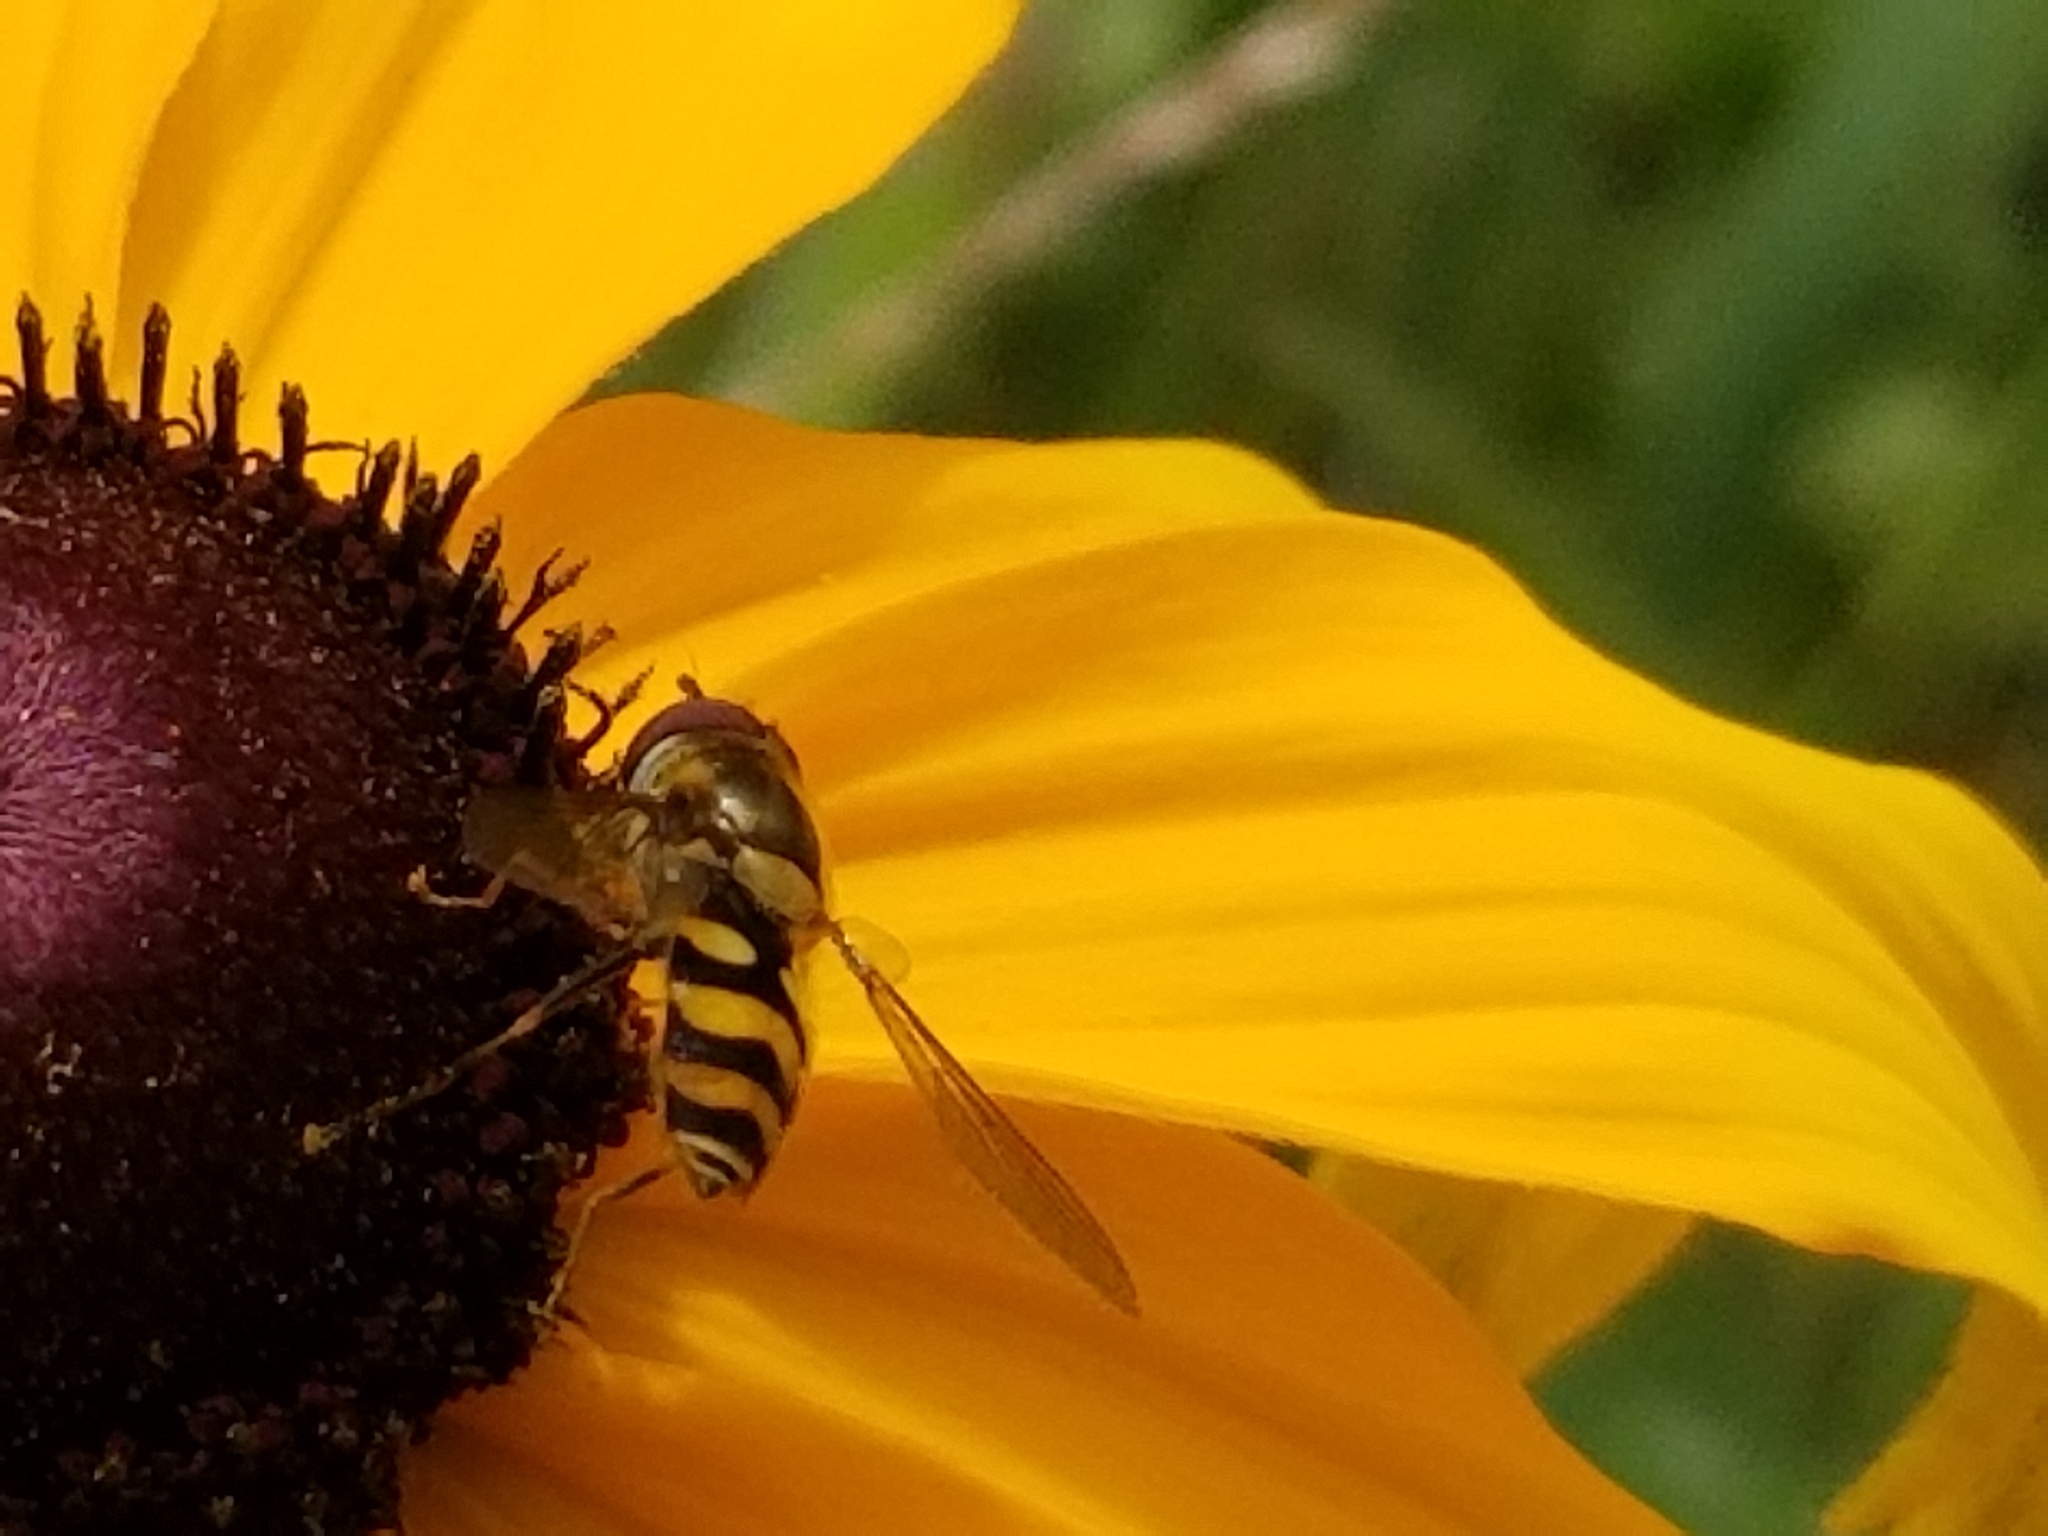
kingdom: Animalia
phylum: Arthropoda
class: Insecta
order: Diptera
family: Syrphidae
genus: Syrphus
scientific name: Syrphus
